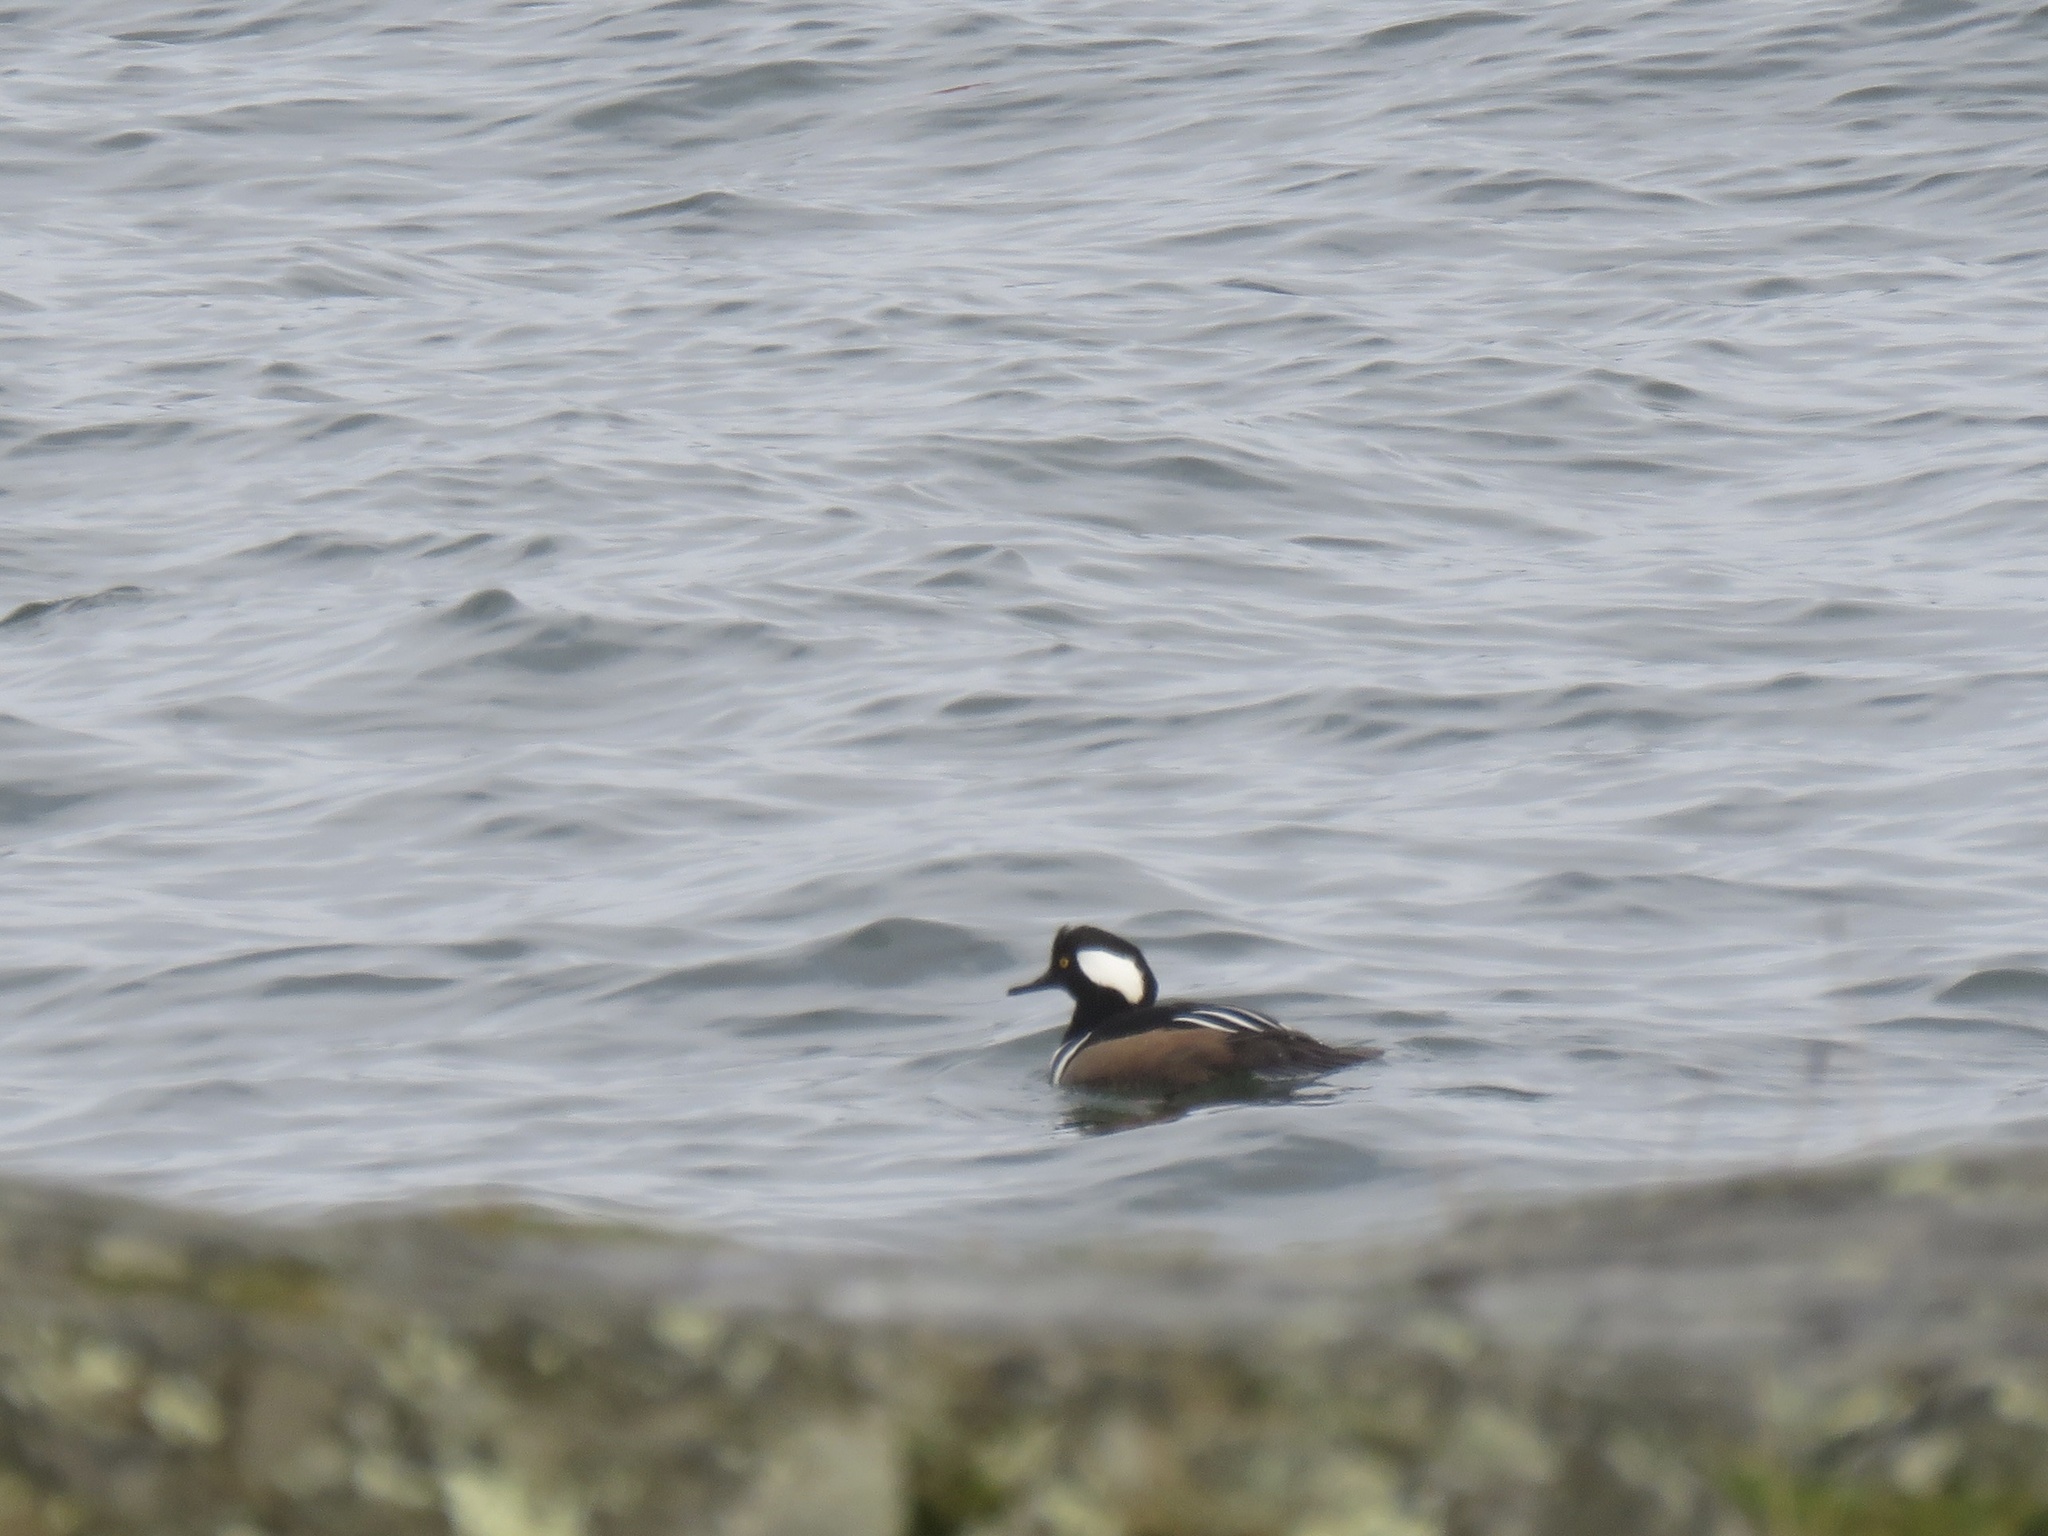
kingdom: Animalia
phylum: Chordata
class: Aves
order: Anseriformes
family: Anatidae
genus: Lophodytes
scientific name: Lophodytes cucullatus
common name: Hooded merganser
